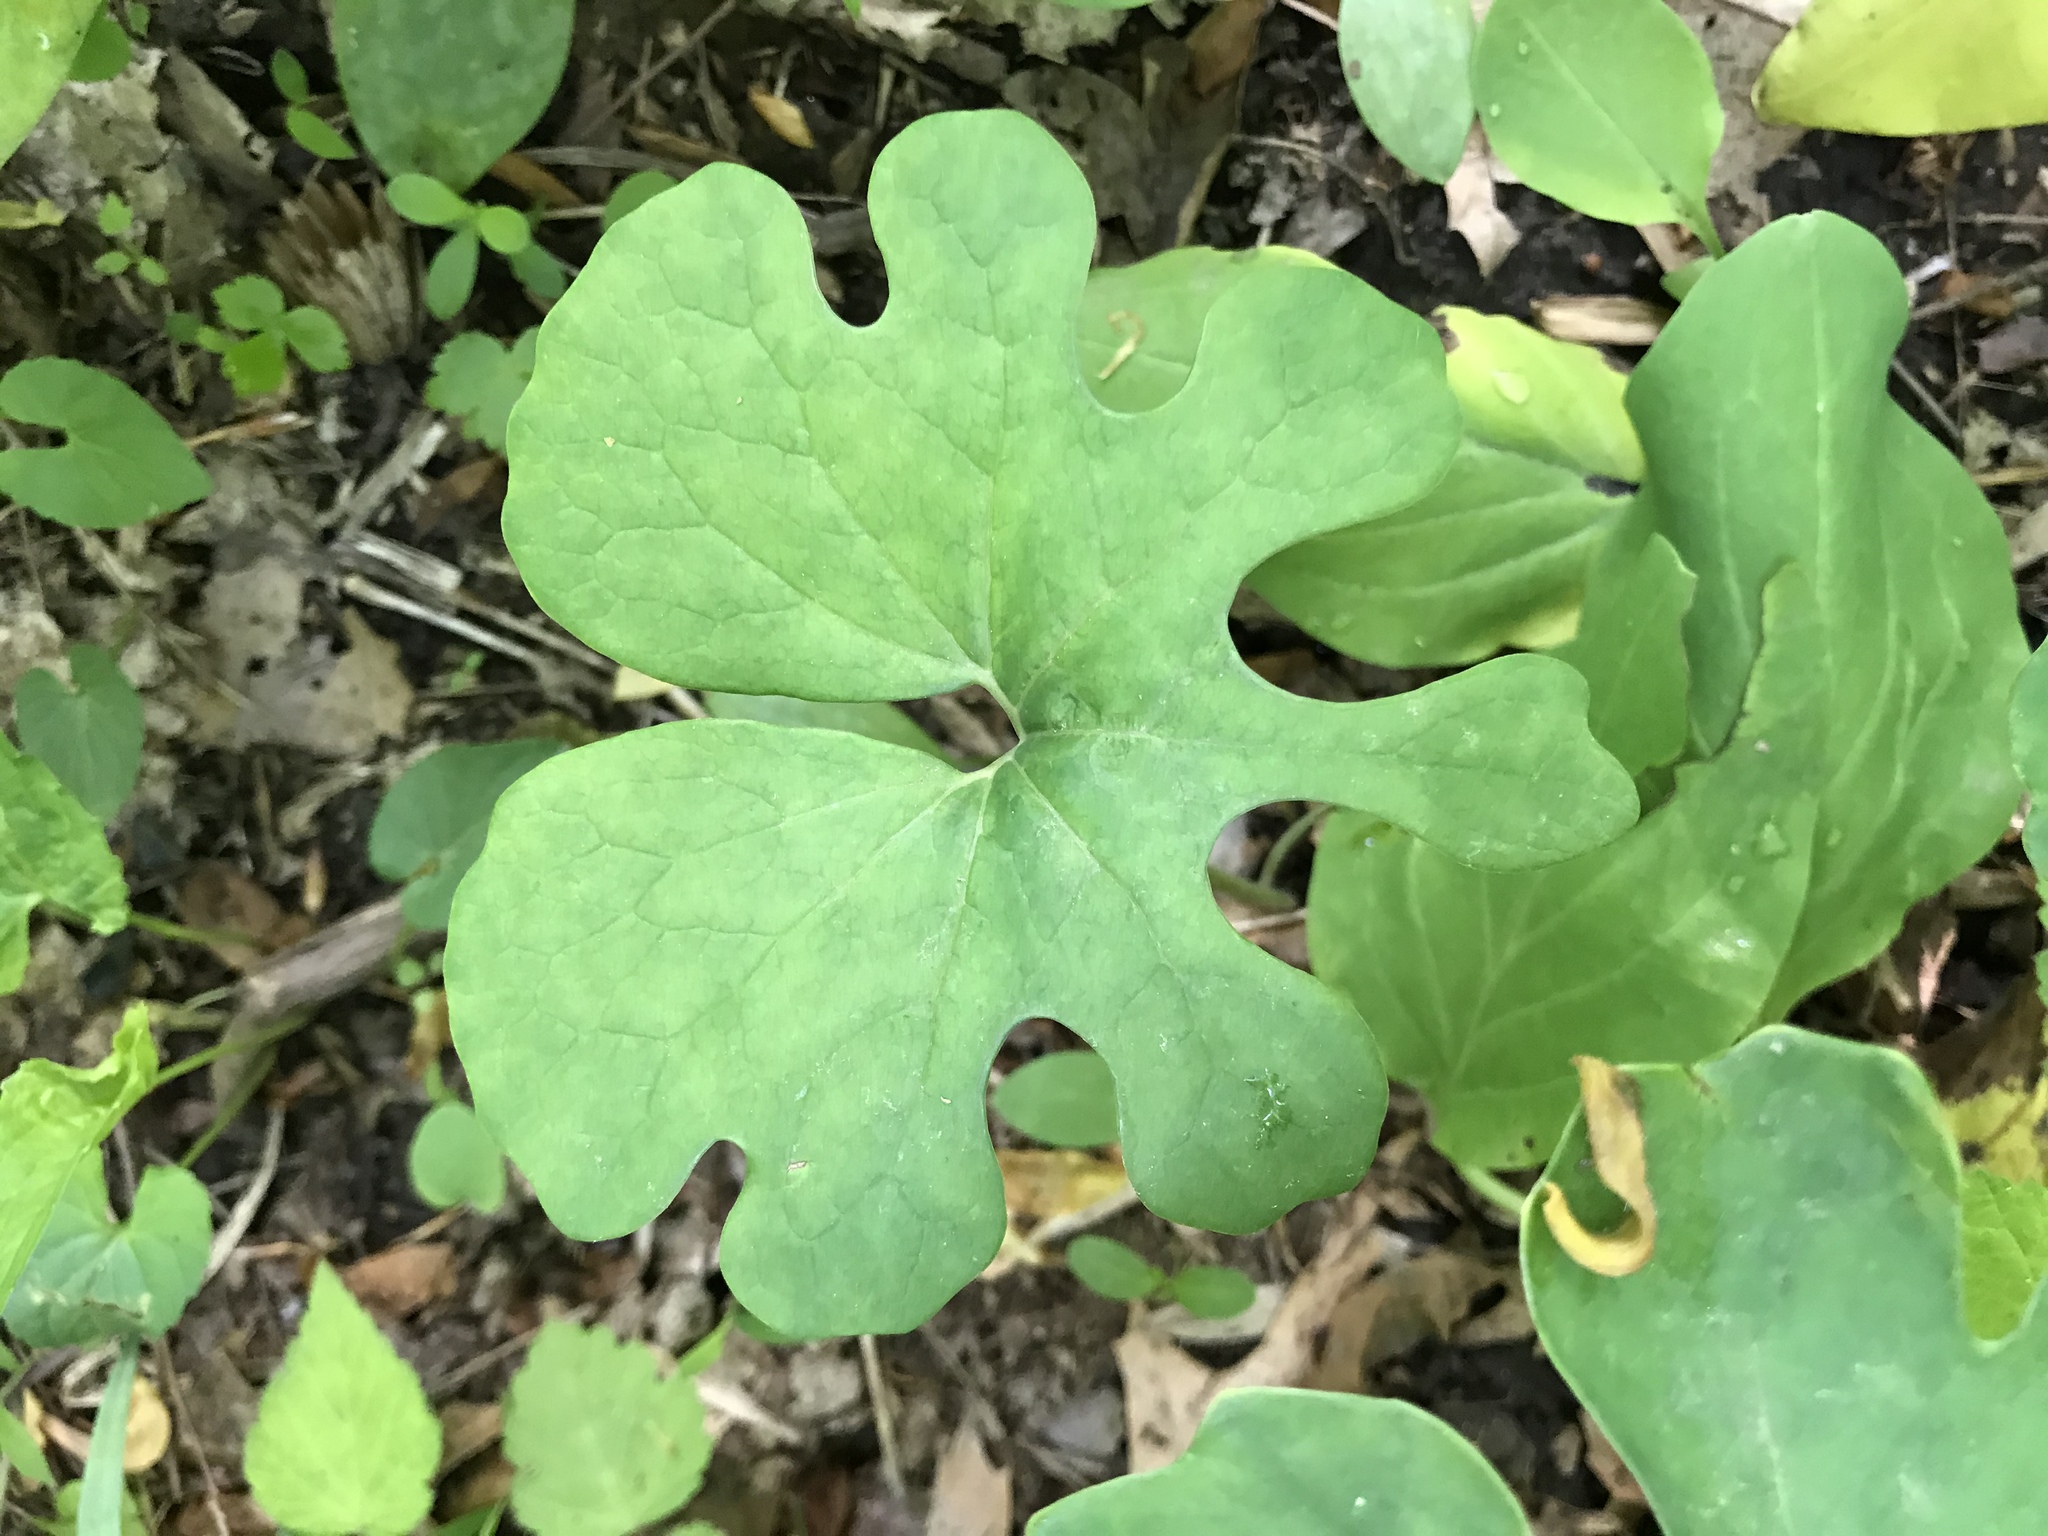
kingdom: Plantae
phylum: Tracheophyta
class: Magnoliopsida
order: Ranunculales
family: Papaveraceae
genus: Sanguinaria
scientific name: Sanguinaria canadensis
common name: Bloodroot
